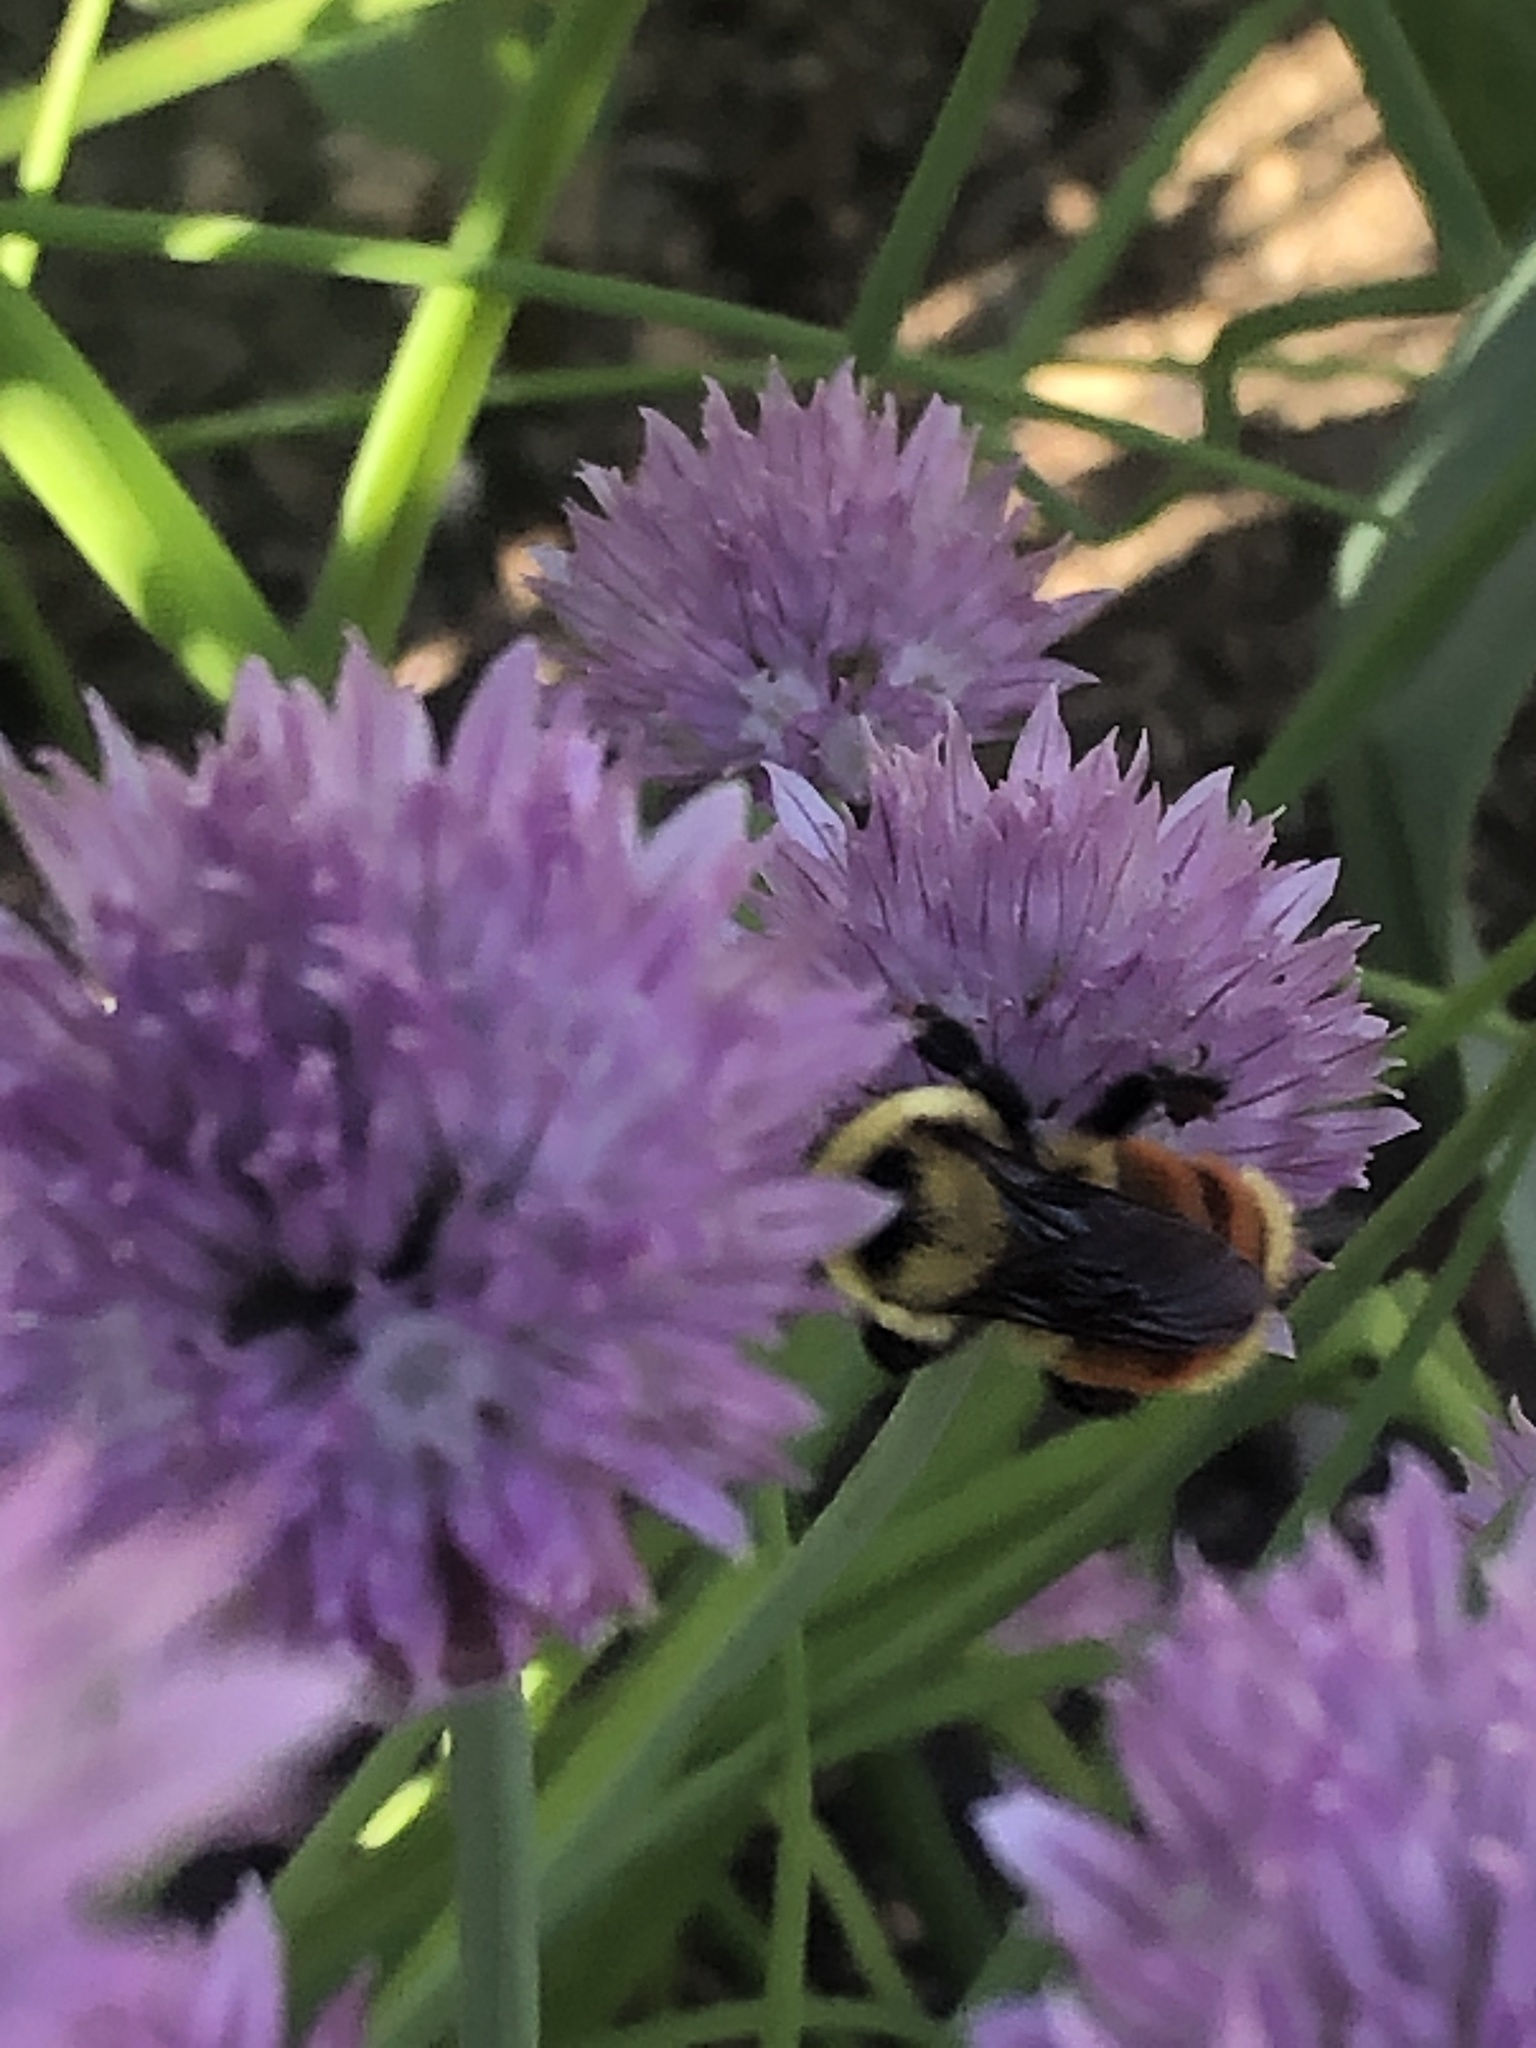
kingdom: Animalia
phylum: Arthropoda
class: Insecta
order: Hymenoptera
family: Apidae
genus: Bombus
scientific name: Bombus ternarius
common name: Tri-colored bumble bee
